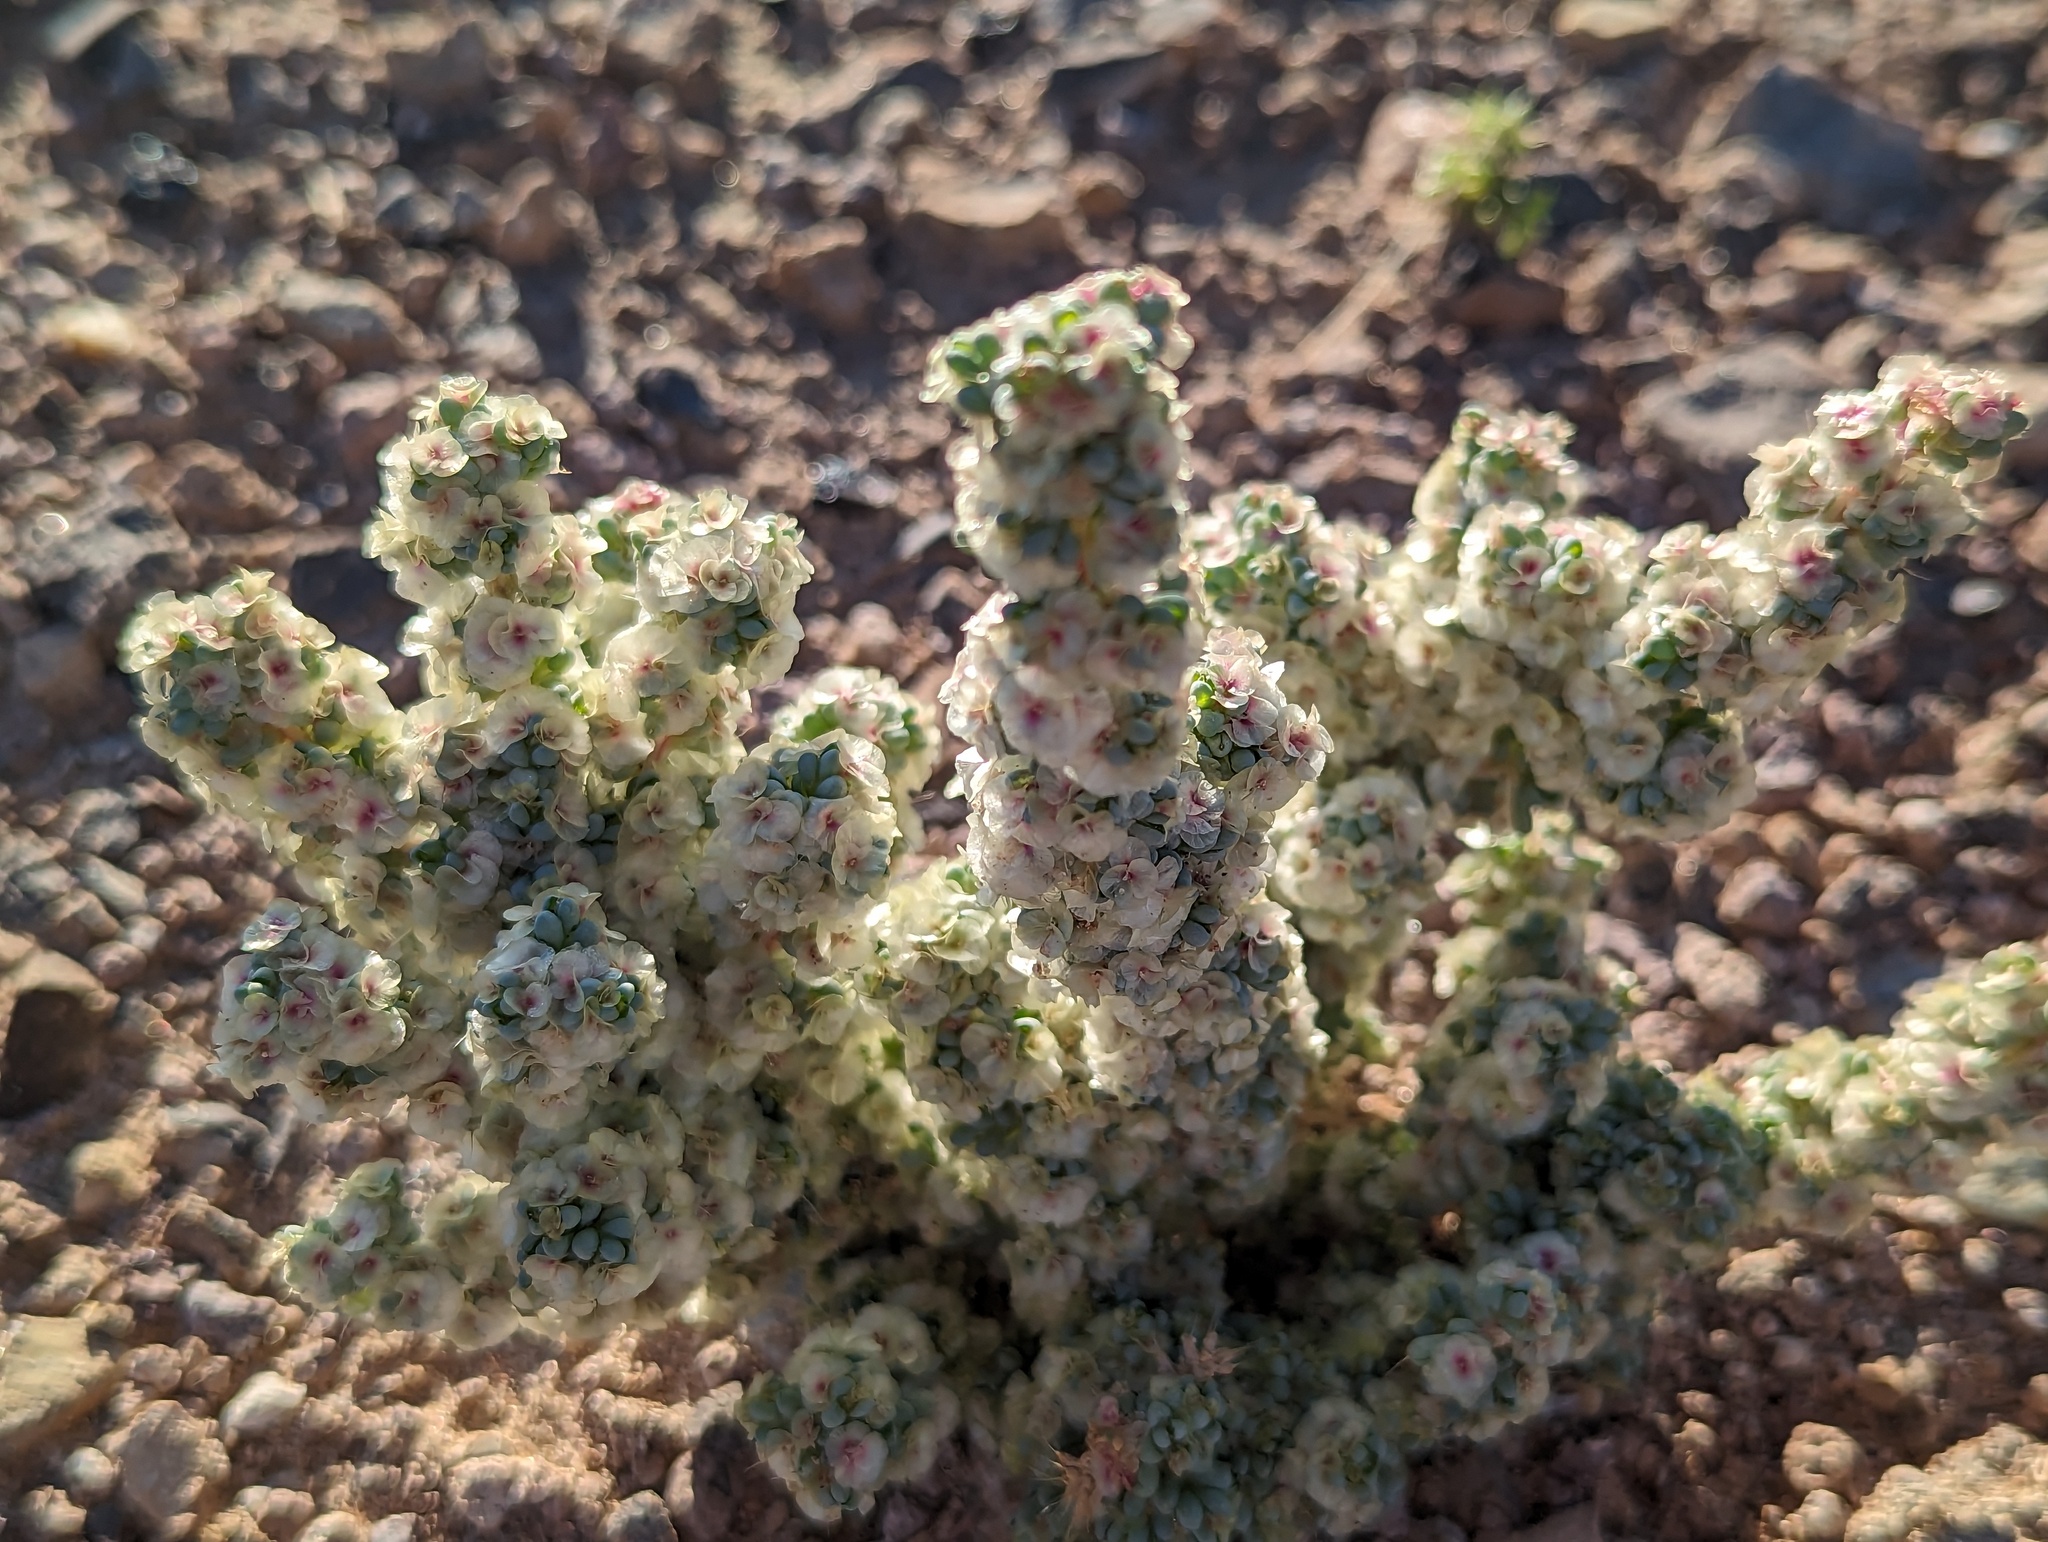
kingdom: Plantae
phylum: Tracheophyta
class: Magnoliopsida
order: Caryophyllales
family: Amaranthaceae
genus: Halogeton
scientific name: Halogeton glomeratus
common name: Saltlover
